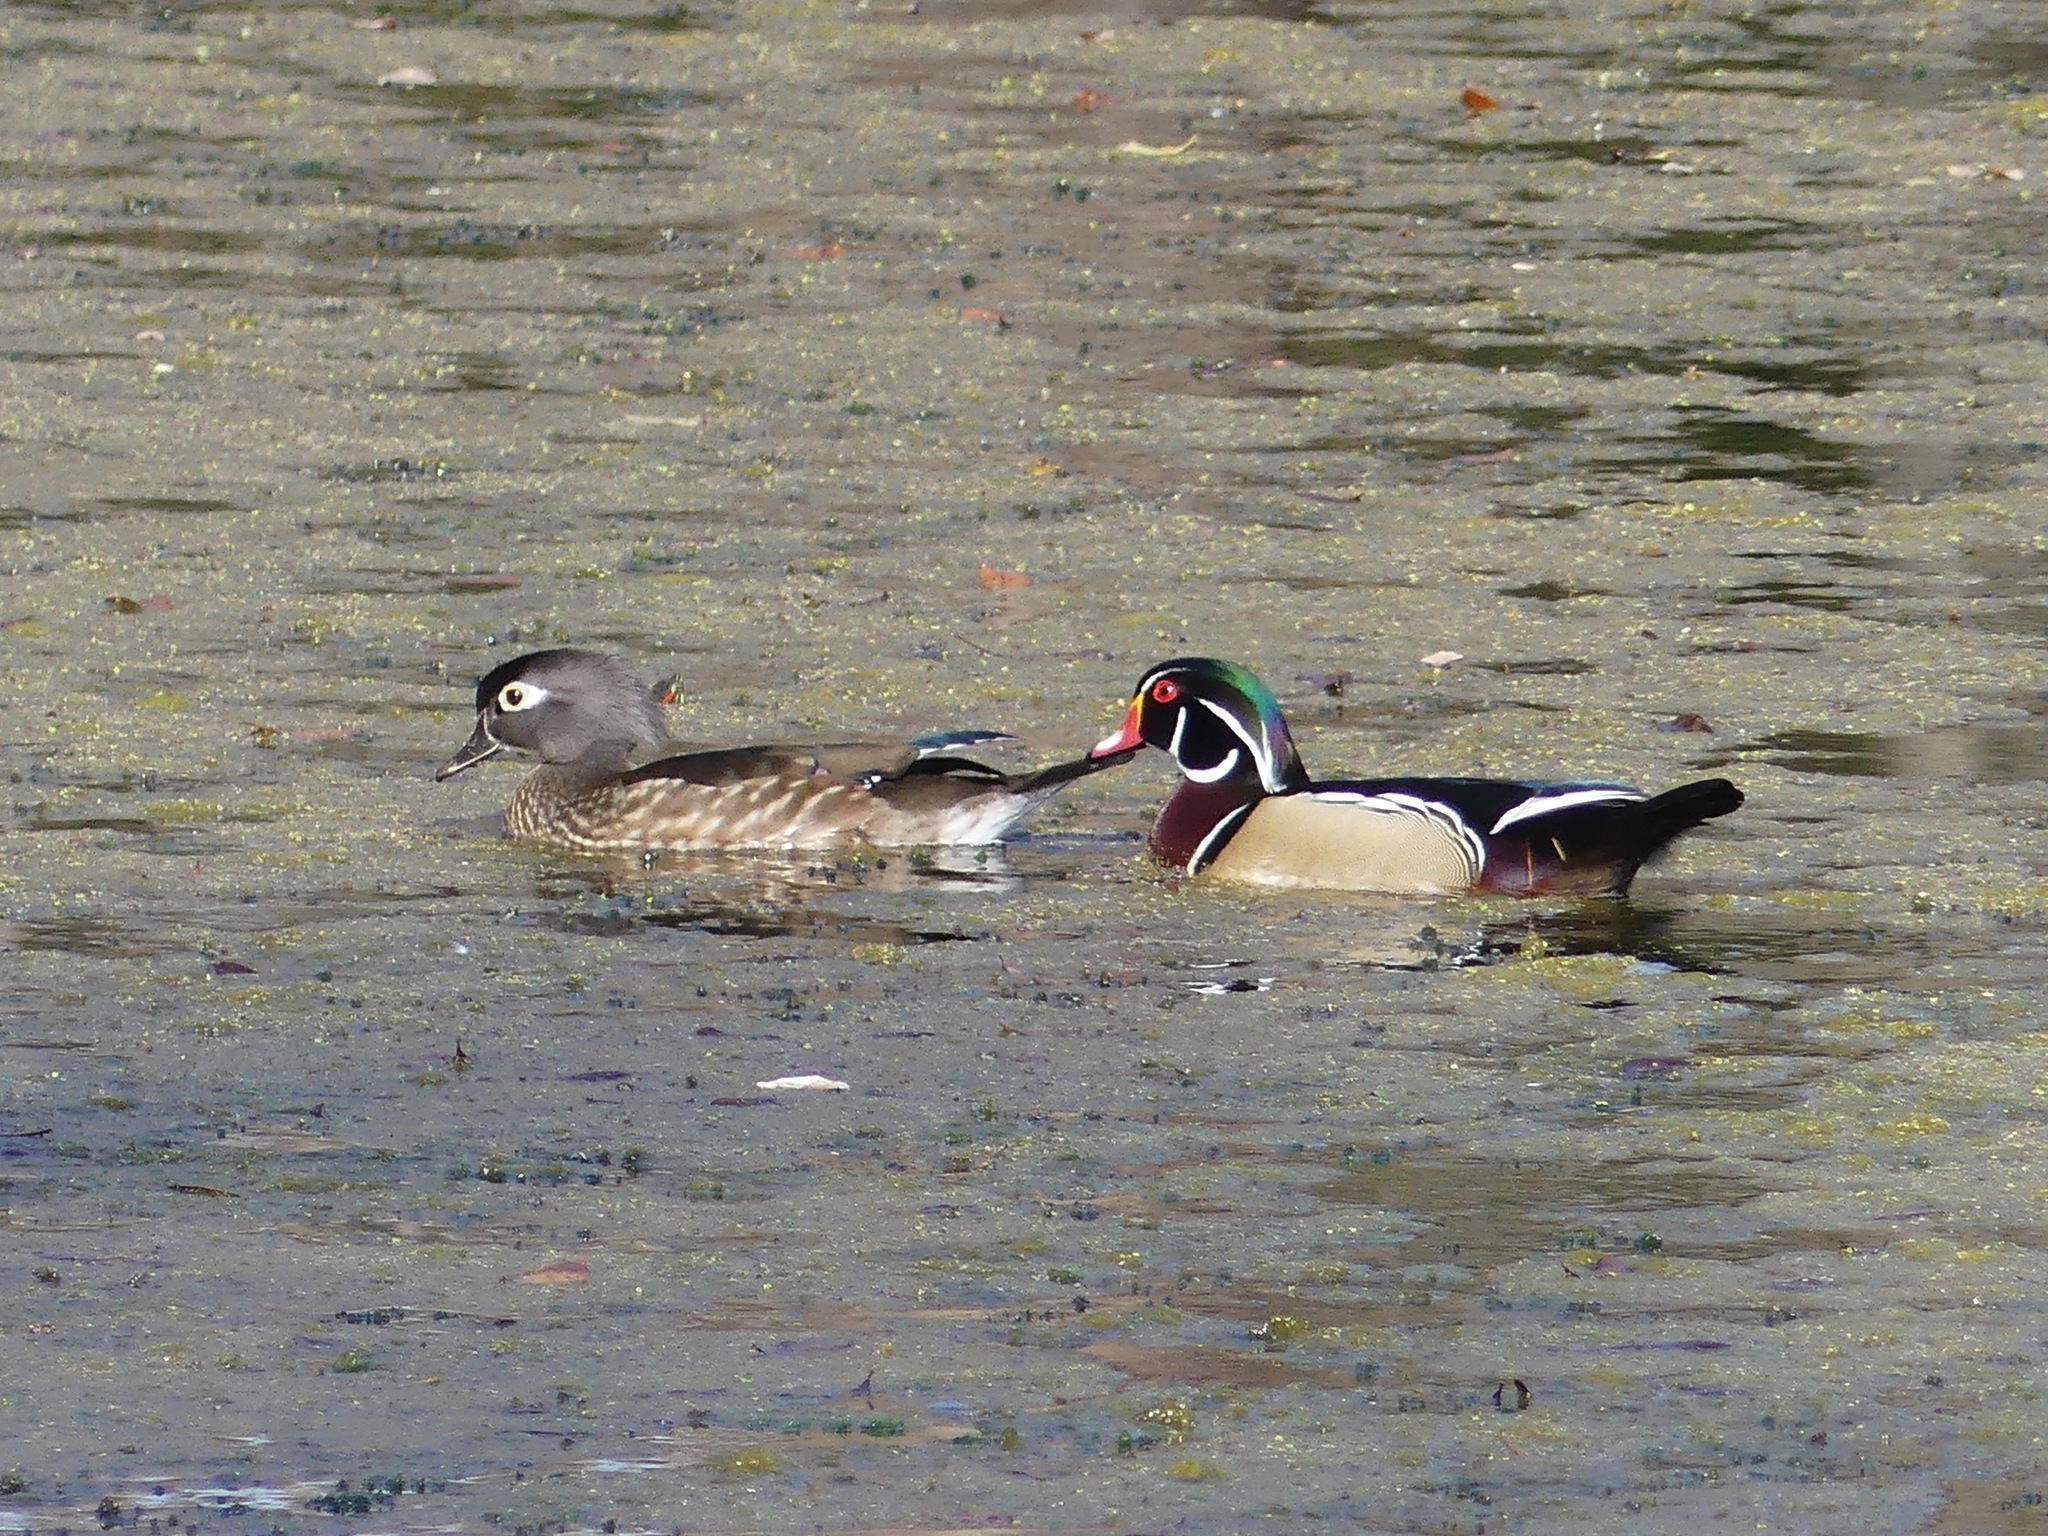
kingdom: Animalia
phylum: Chordata
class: Aves
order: Anseriformes
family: Anatidae
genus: Aix
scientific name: Aix sponsa
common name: Wood duck
